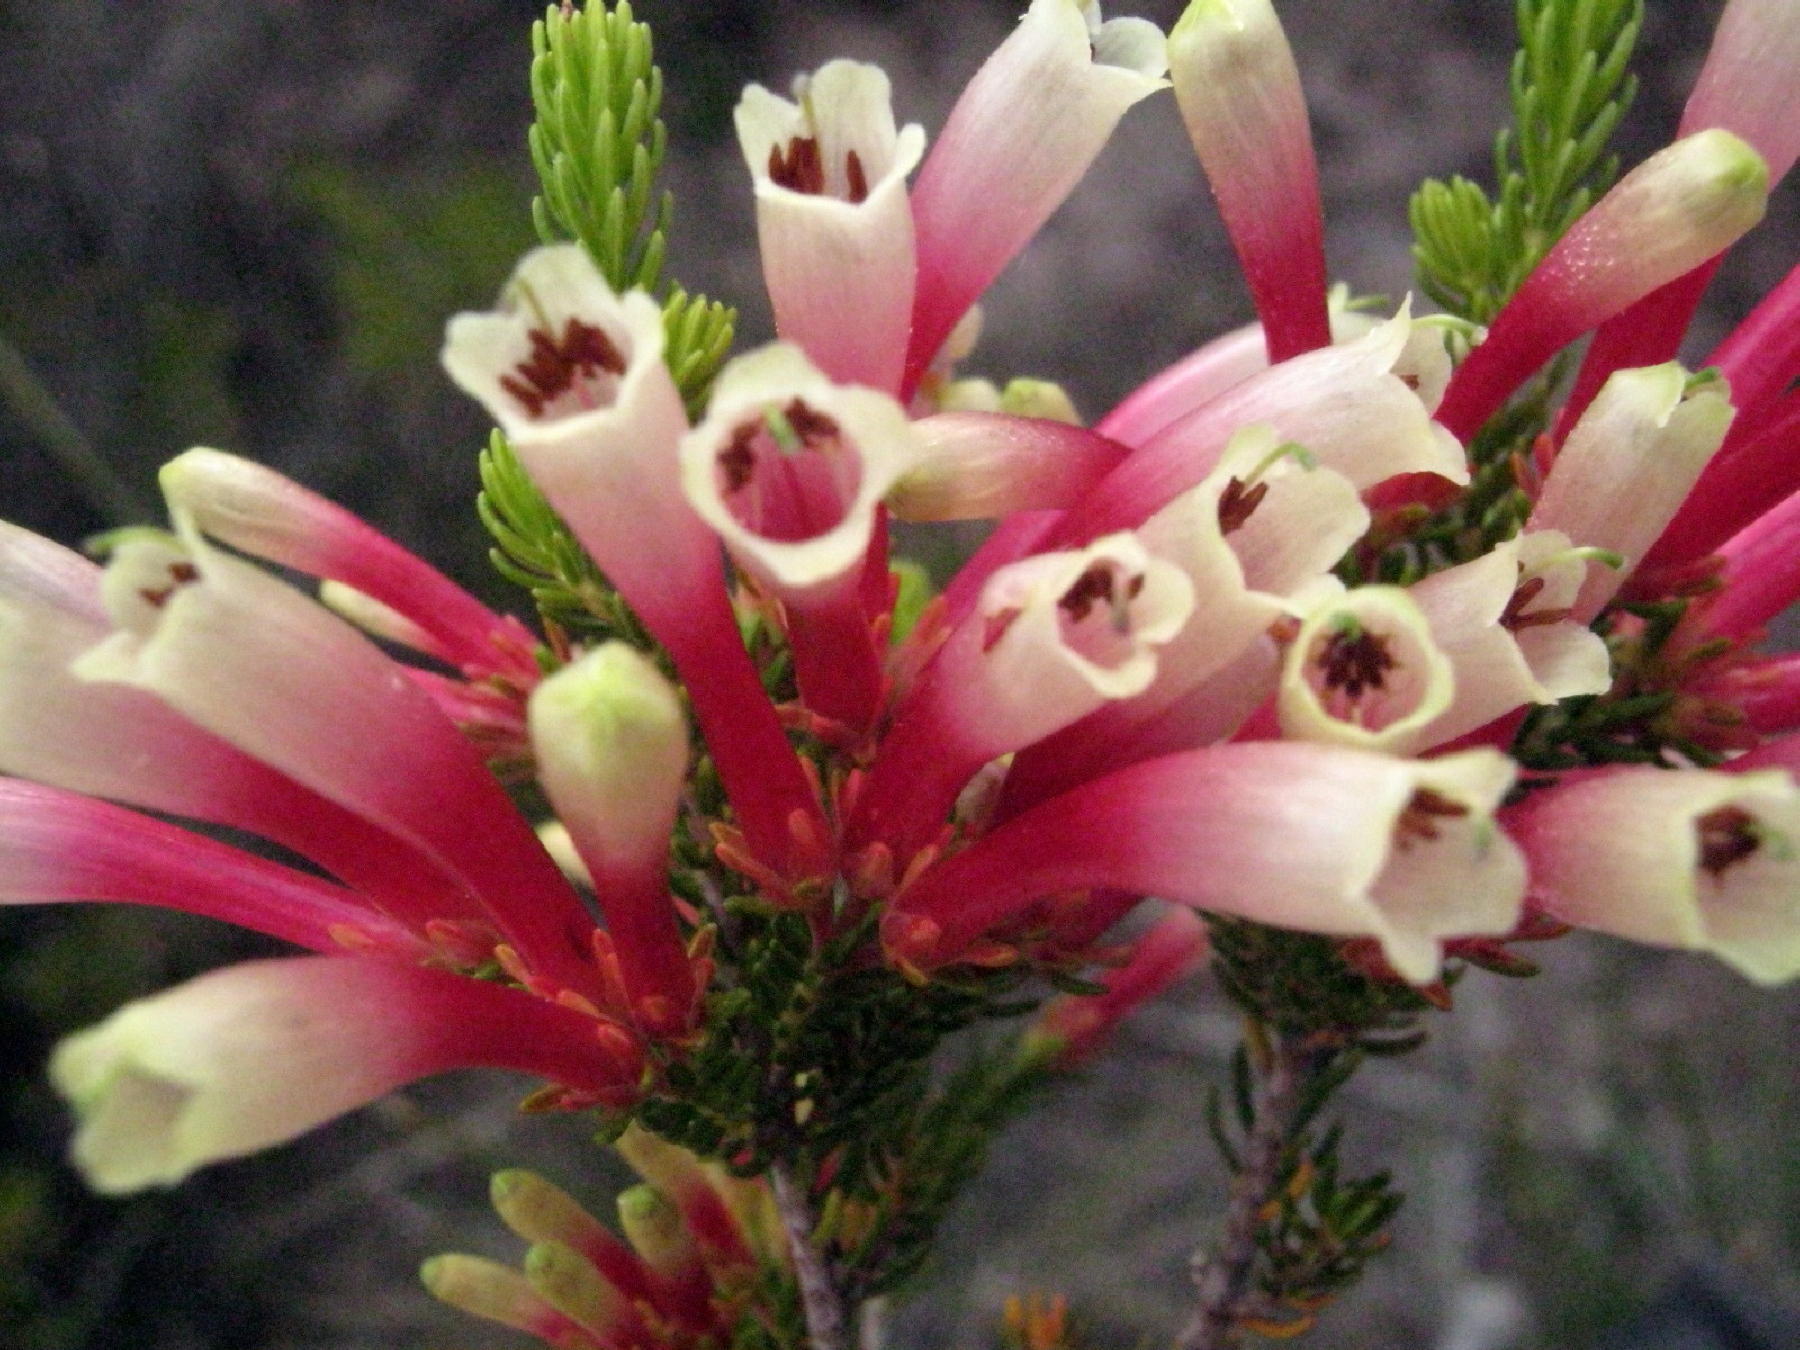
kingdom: Plantae
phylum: Tracheophyta
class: Magnoliopsida
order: Ericales
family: Ericaceae
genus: Erica
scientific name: Erica versicolor
